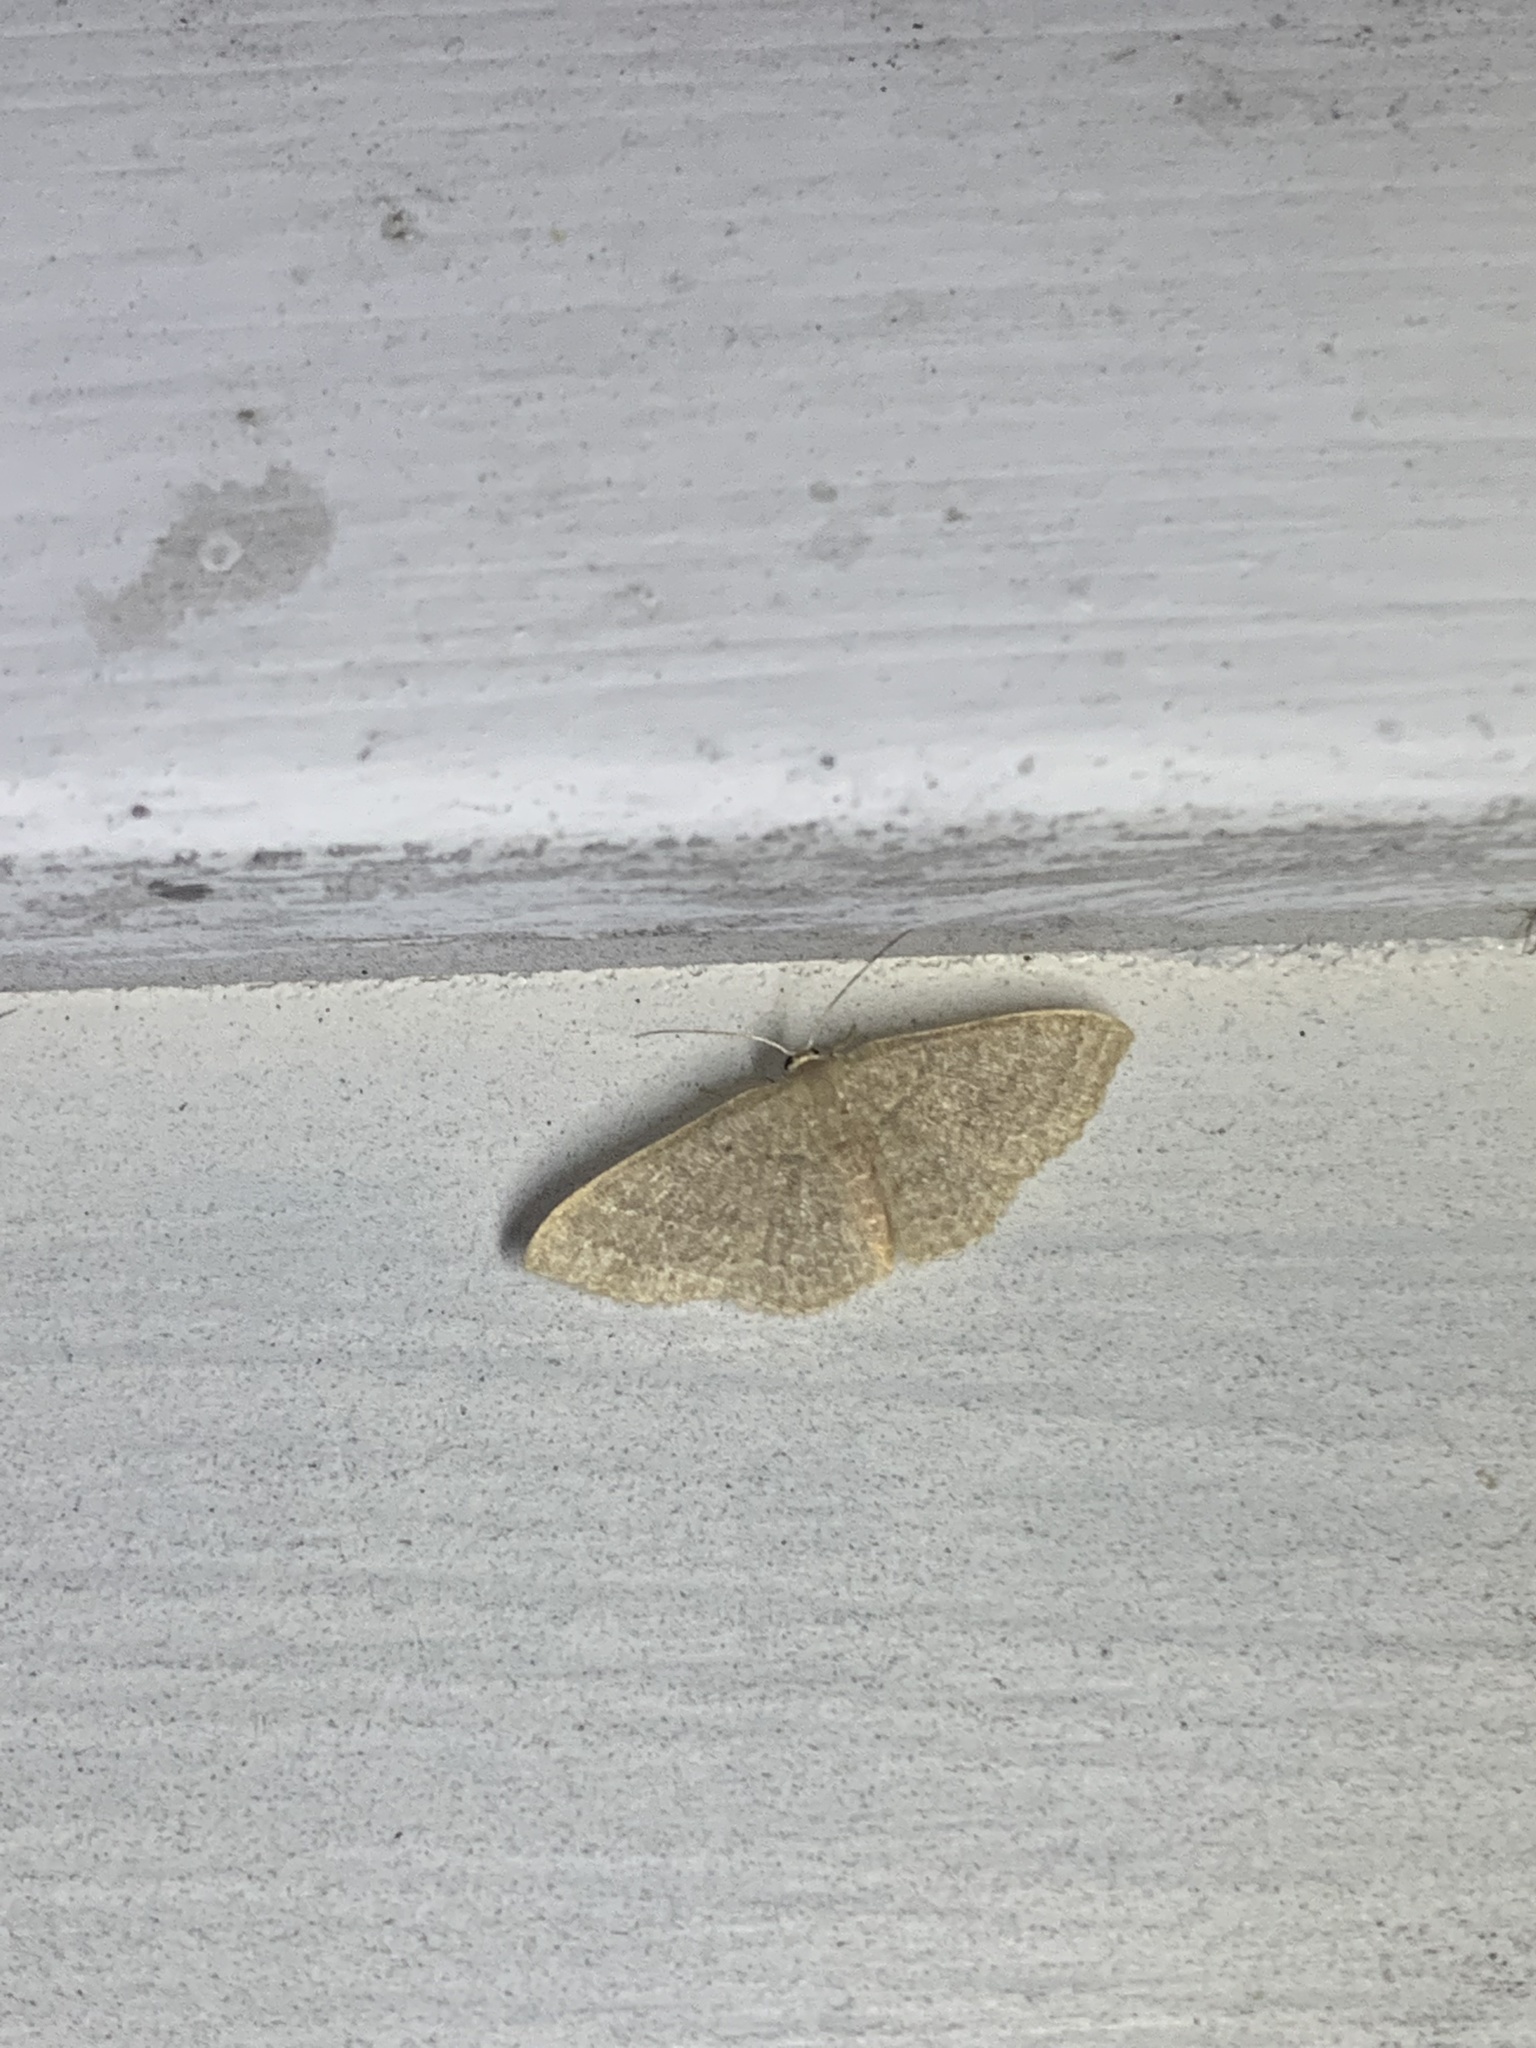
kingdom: Animalia
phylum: Arthropoda
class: Insecta
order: Lepidoptera
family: Geometridae
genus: Pleuroprucha
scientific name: Pleuroprucha insulsaria
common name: Common tan wave
